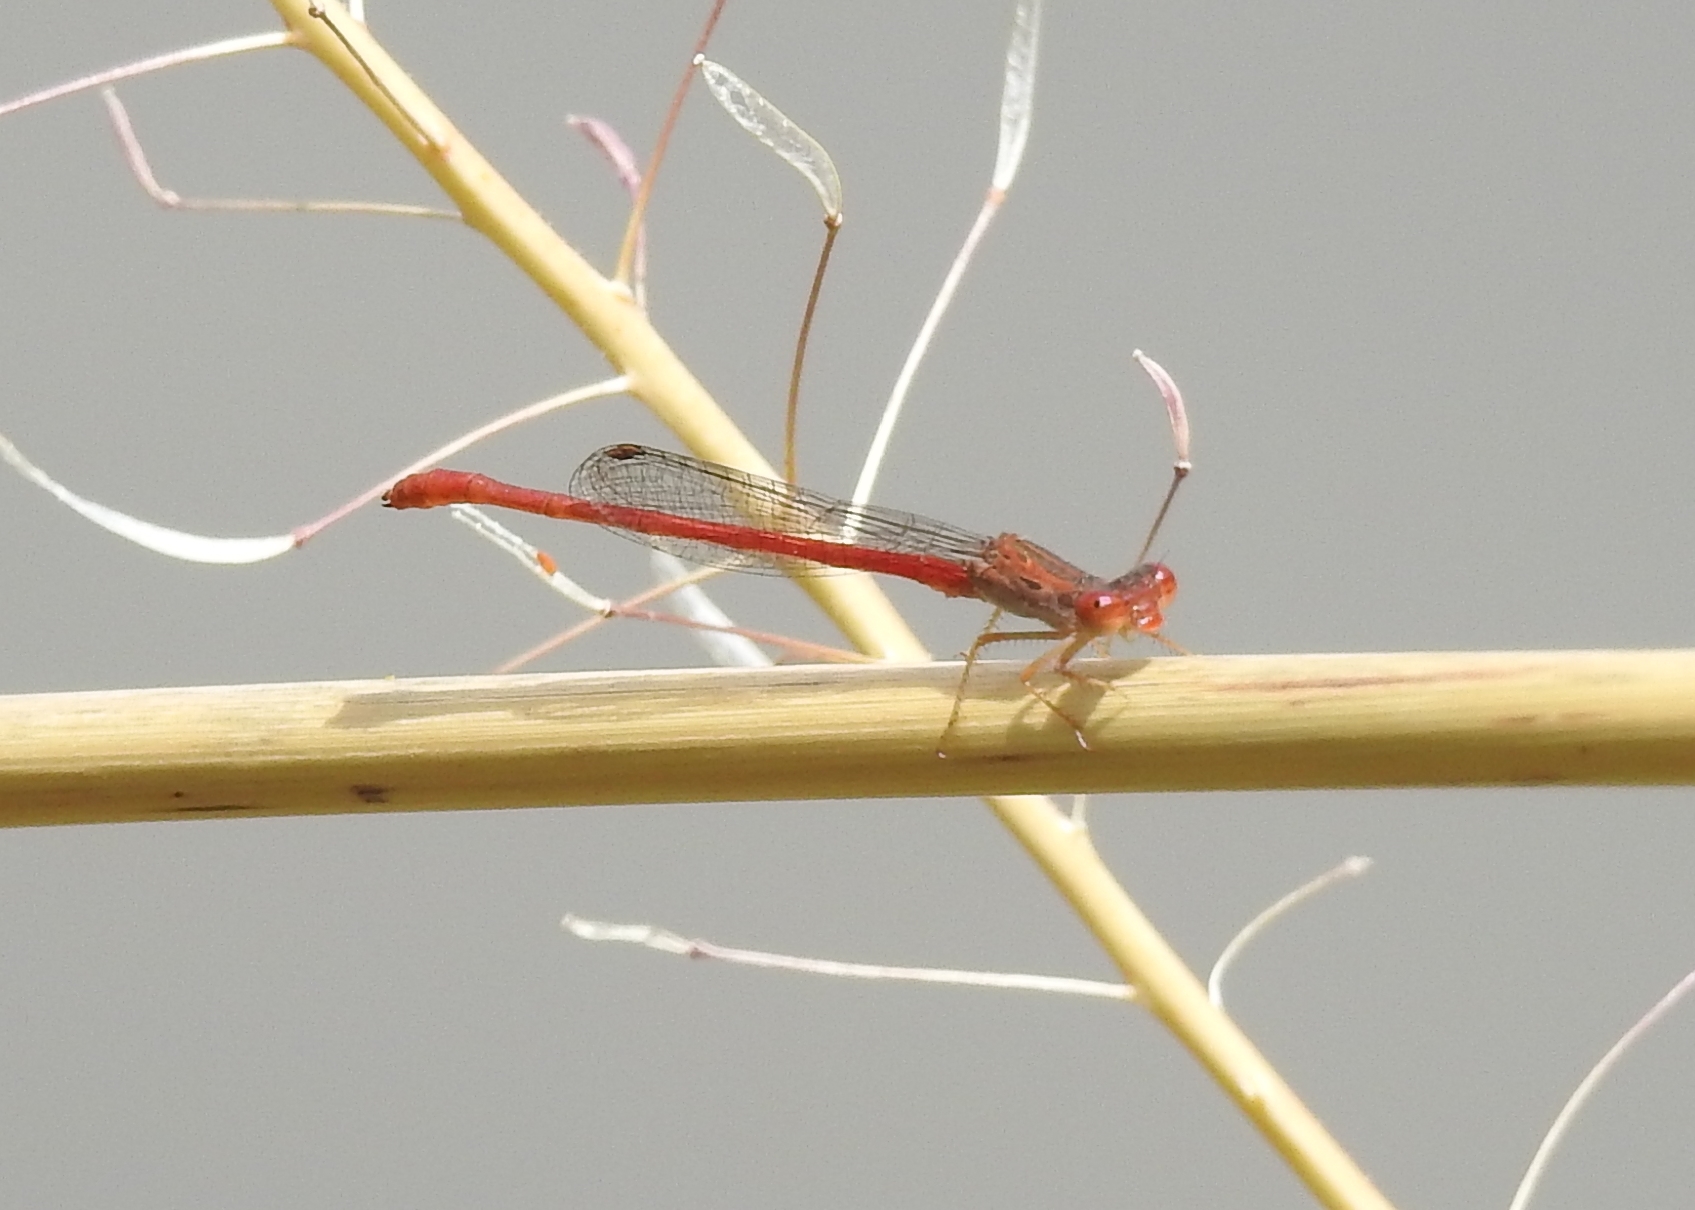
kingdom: Animalia
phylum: Arthropoda
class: Insecta
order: Odonata
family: Coenagrionidae
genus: Telebasis
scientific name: Telebasis salva
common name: Desert firetail
